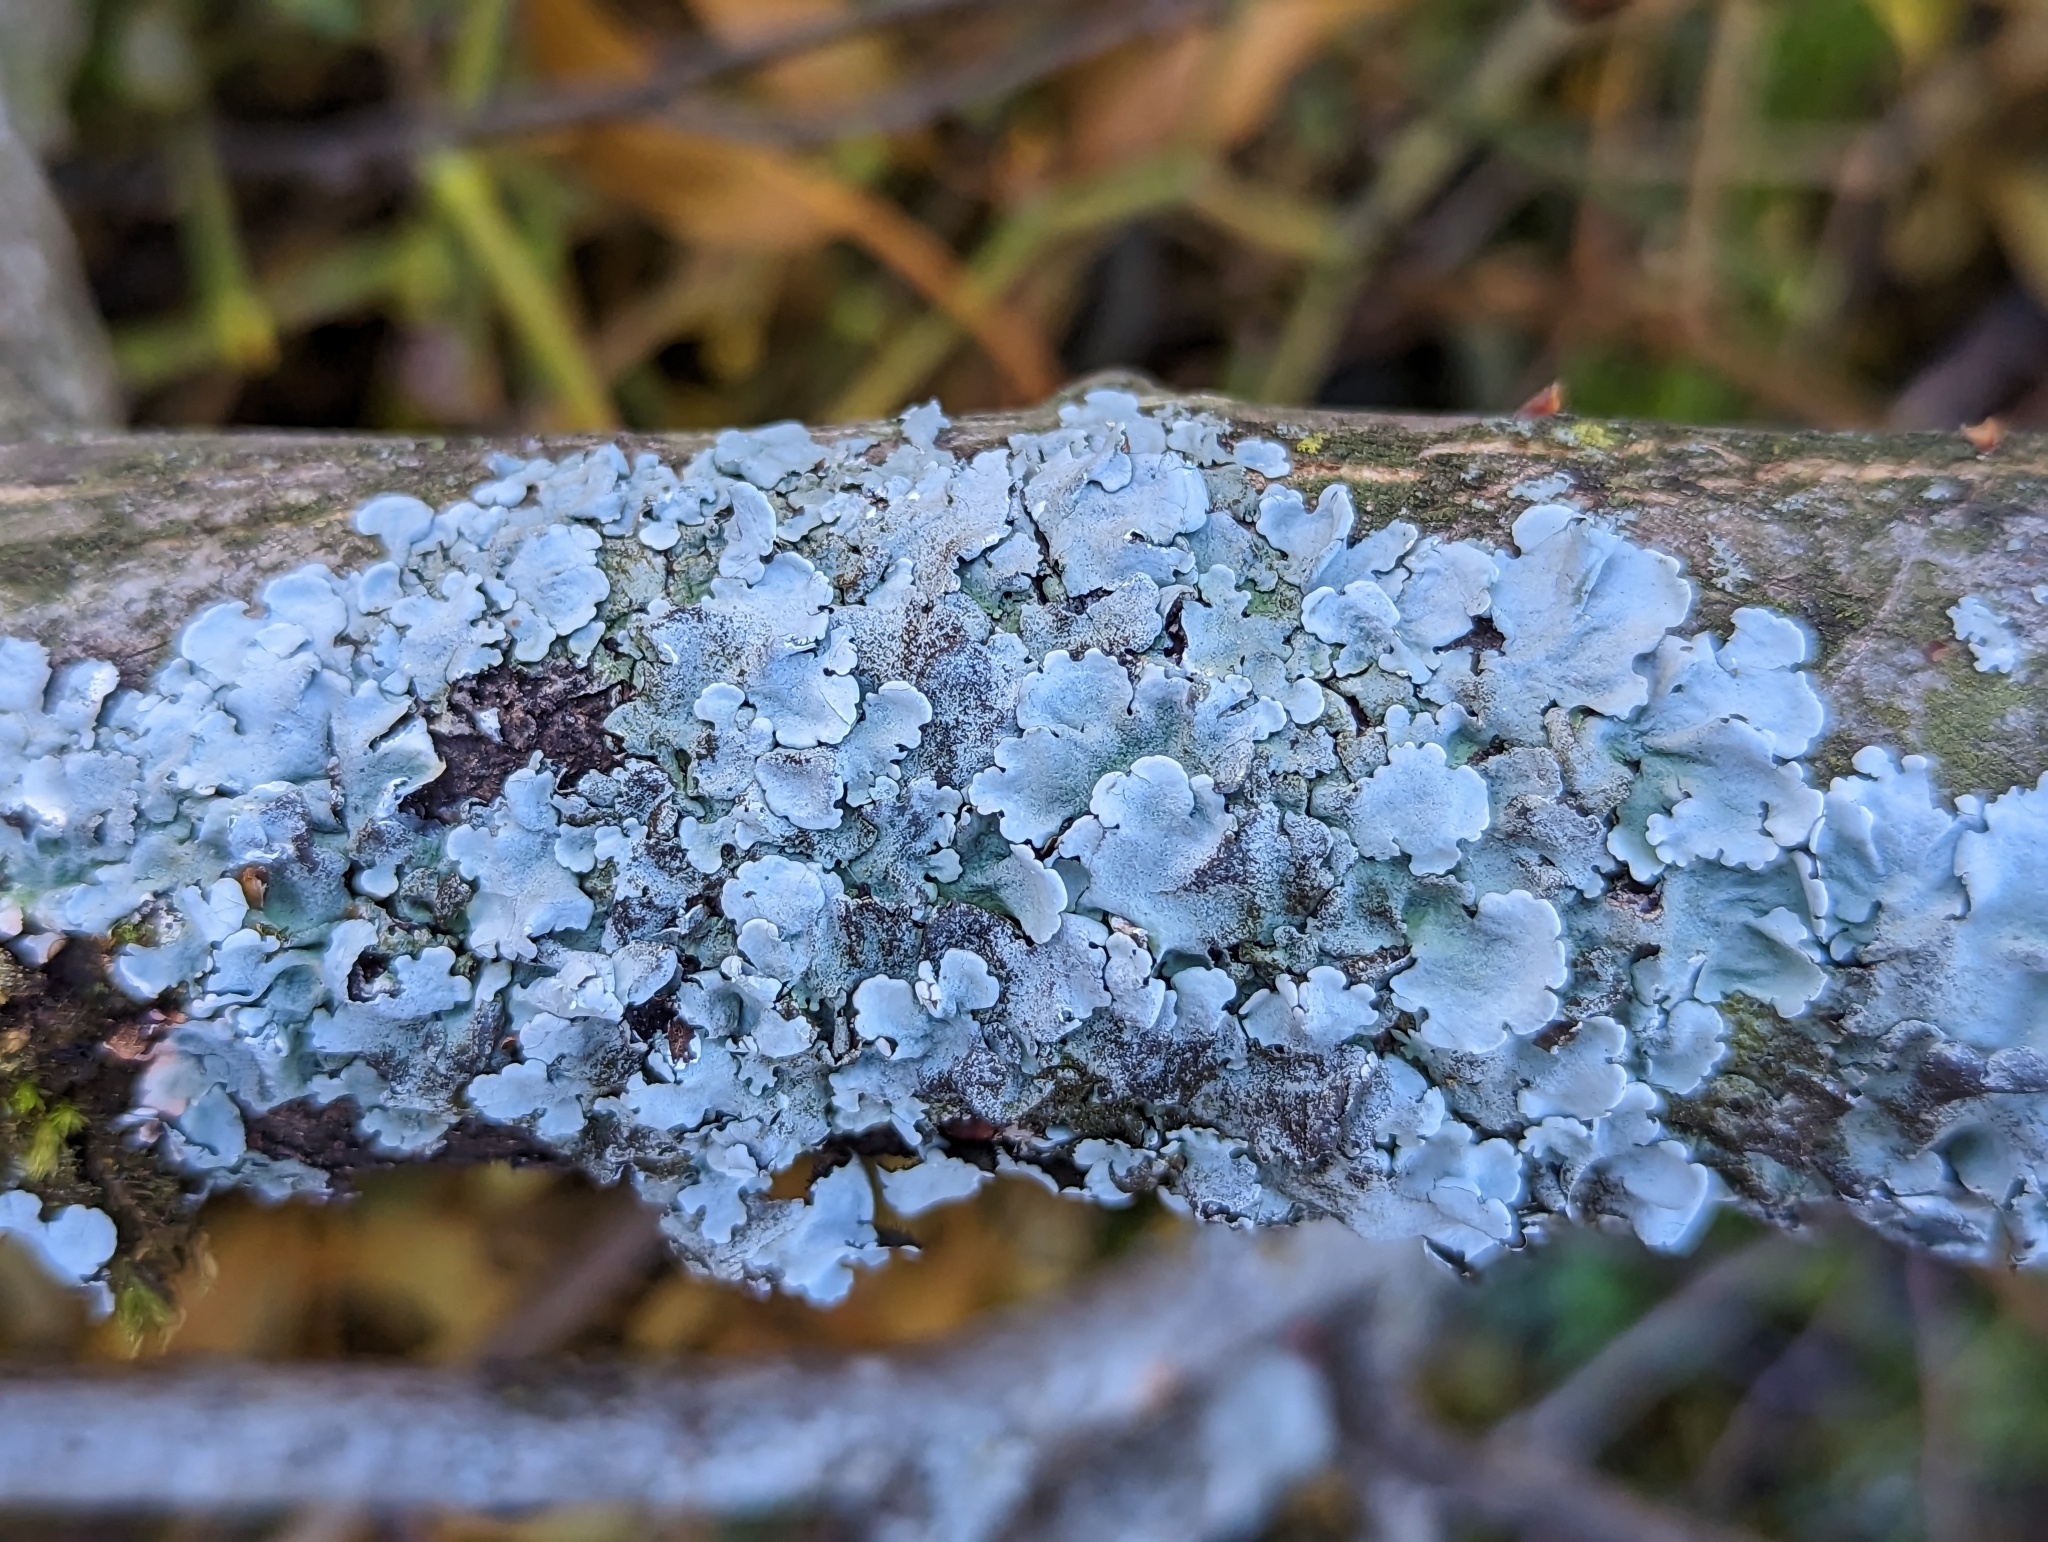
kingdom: Fungi
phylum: Ascomycota
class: Lecanoromycetes
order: Lecanorales
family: Parmeliaceae
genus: Parmelina
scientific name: Parmelina tiliacea
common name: Linden shield lichen
